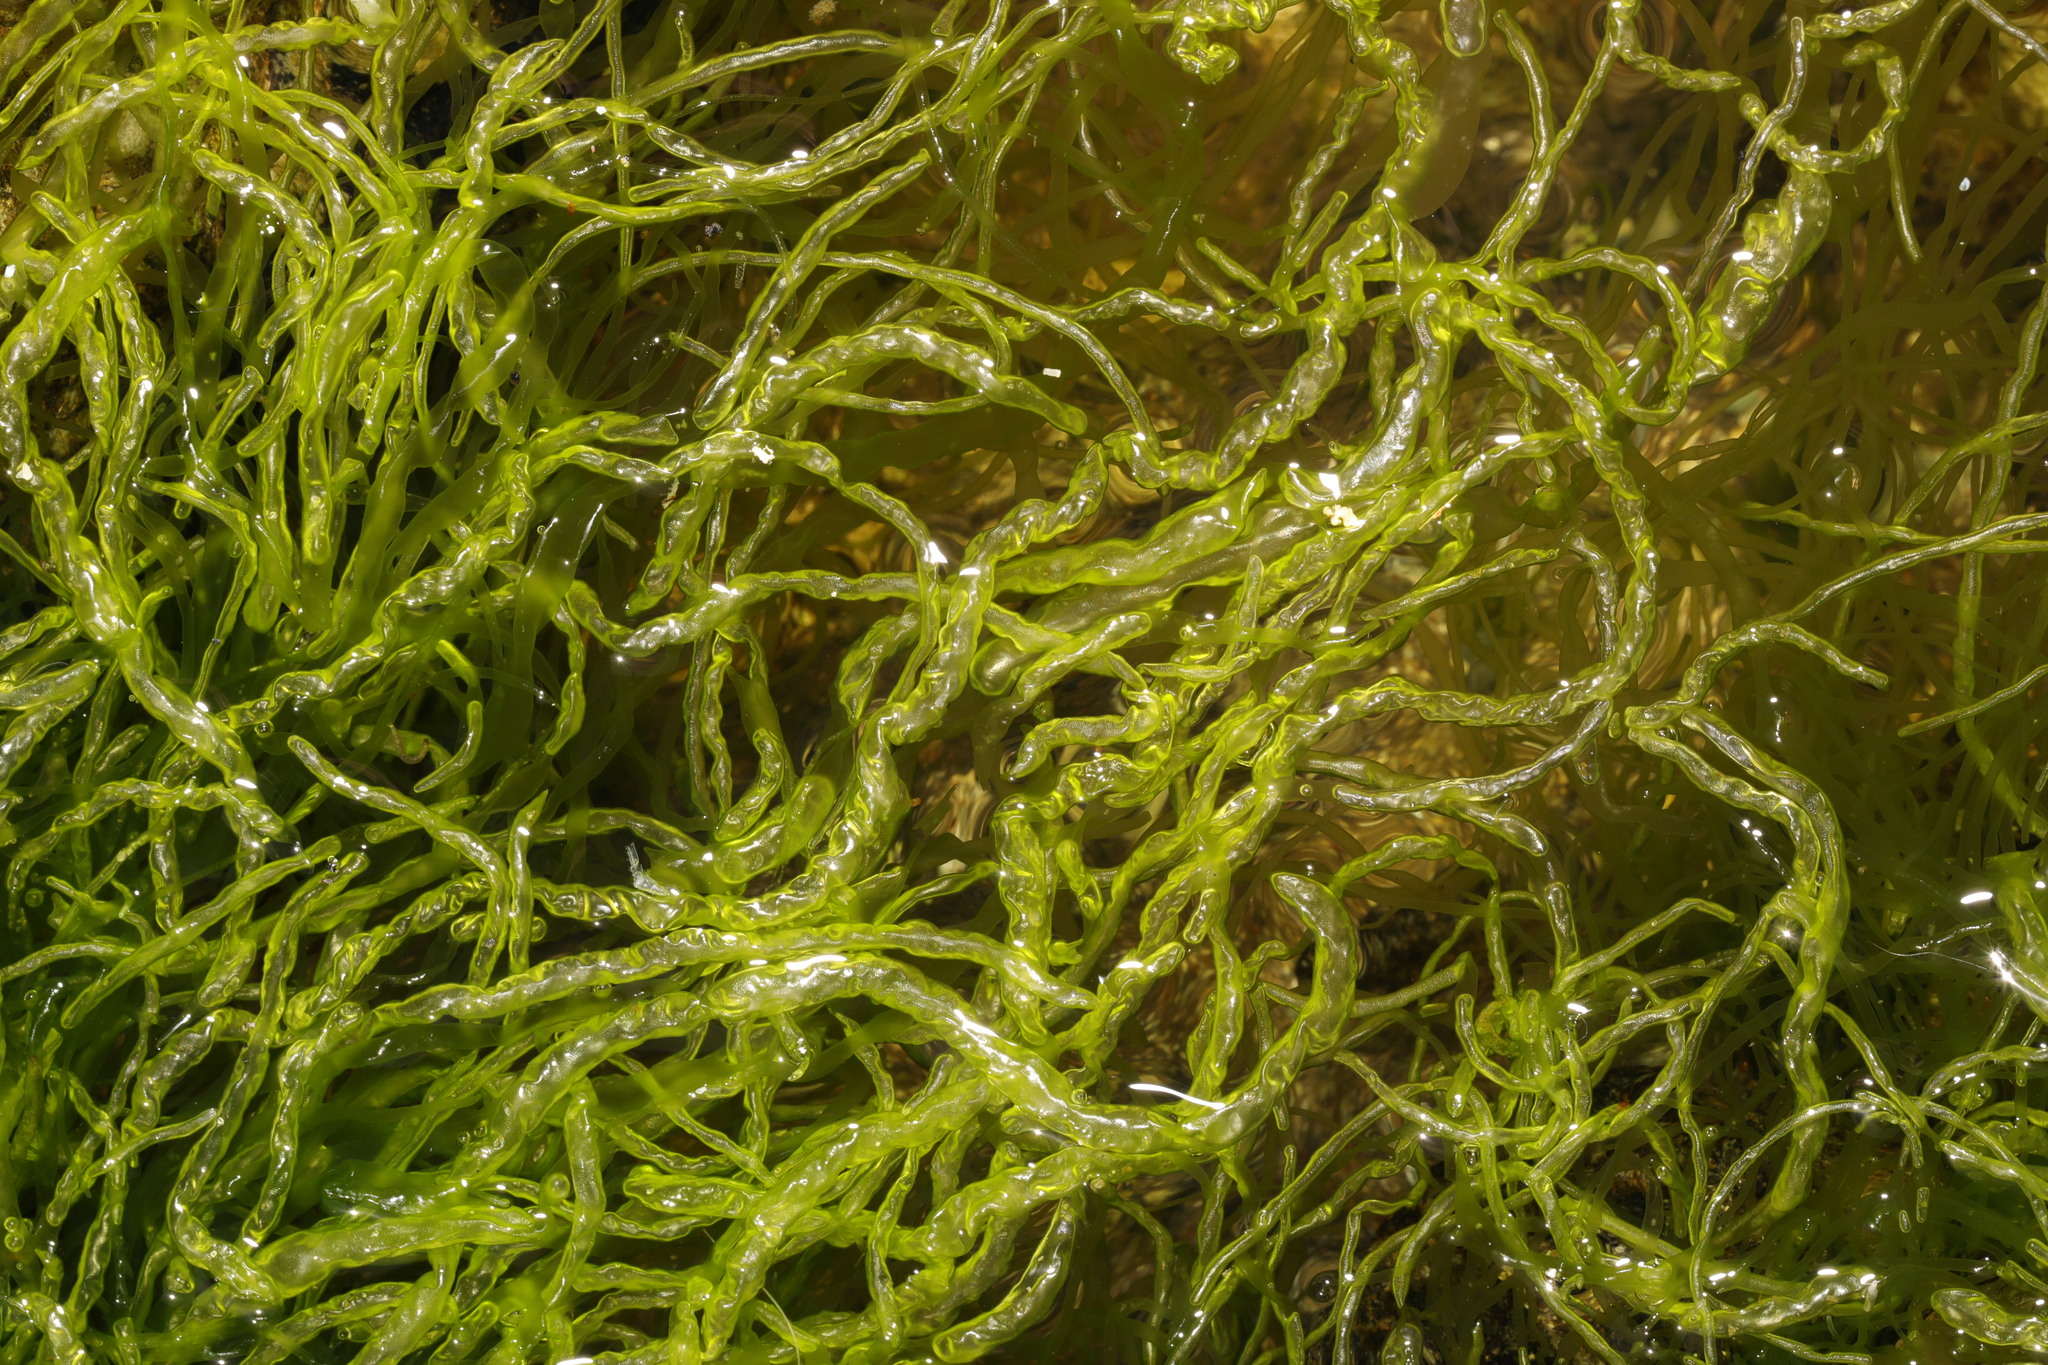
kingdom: Plantae
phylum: Chlorophyta
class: Ulvophyceae
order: Ulvales
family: Ulvaceae
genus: Ulva
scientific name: Ulva intestinalis
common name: Gut weed
